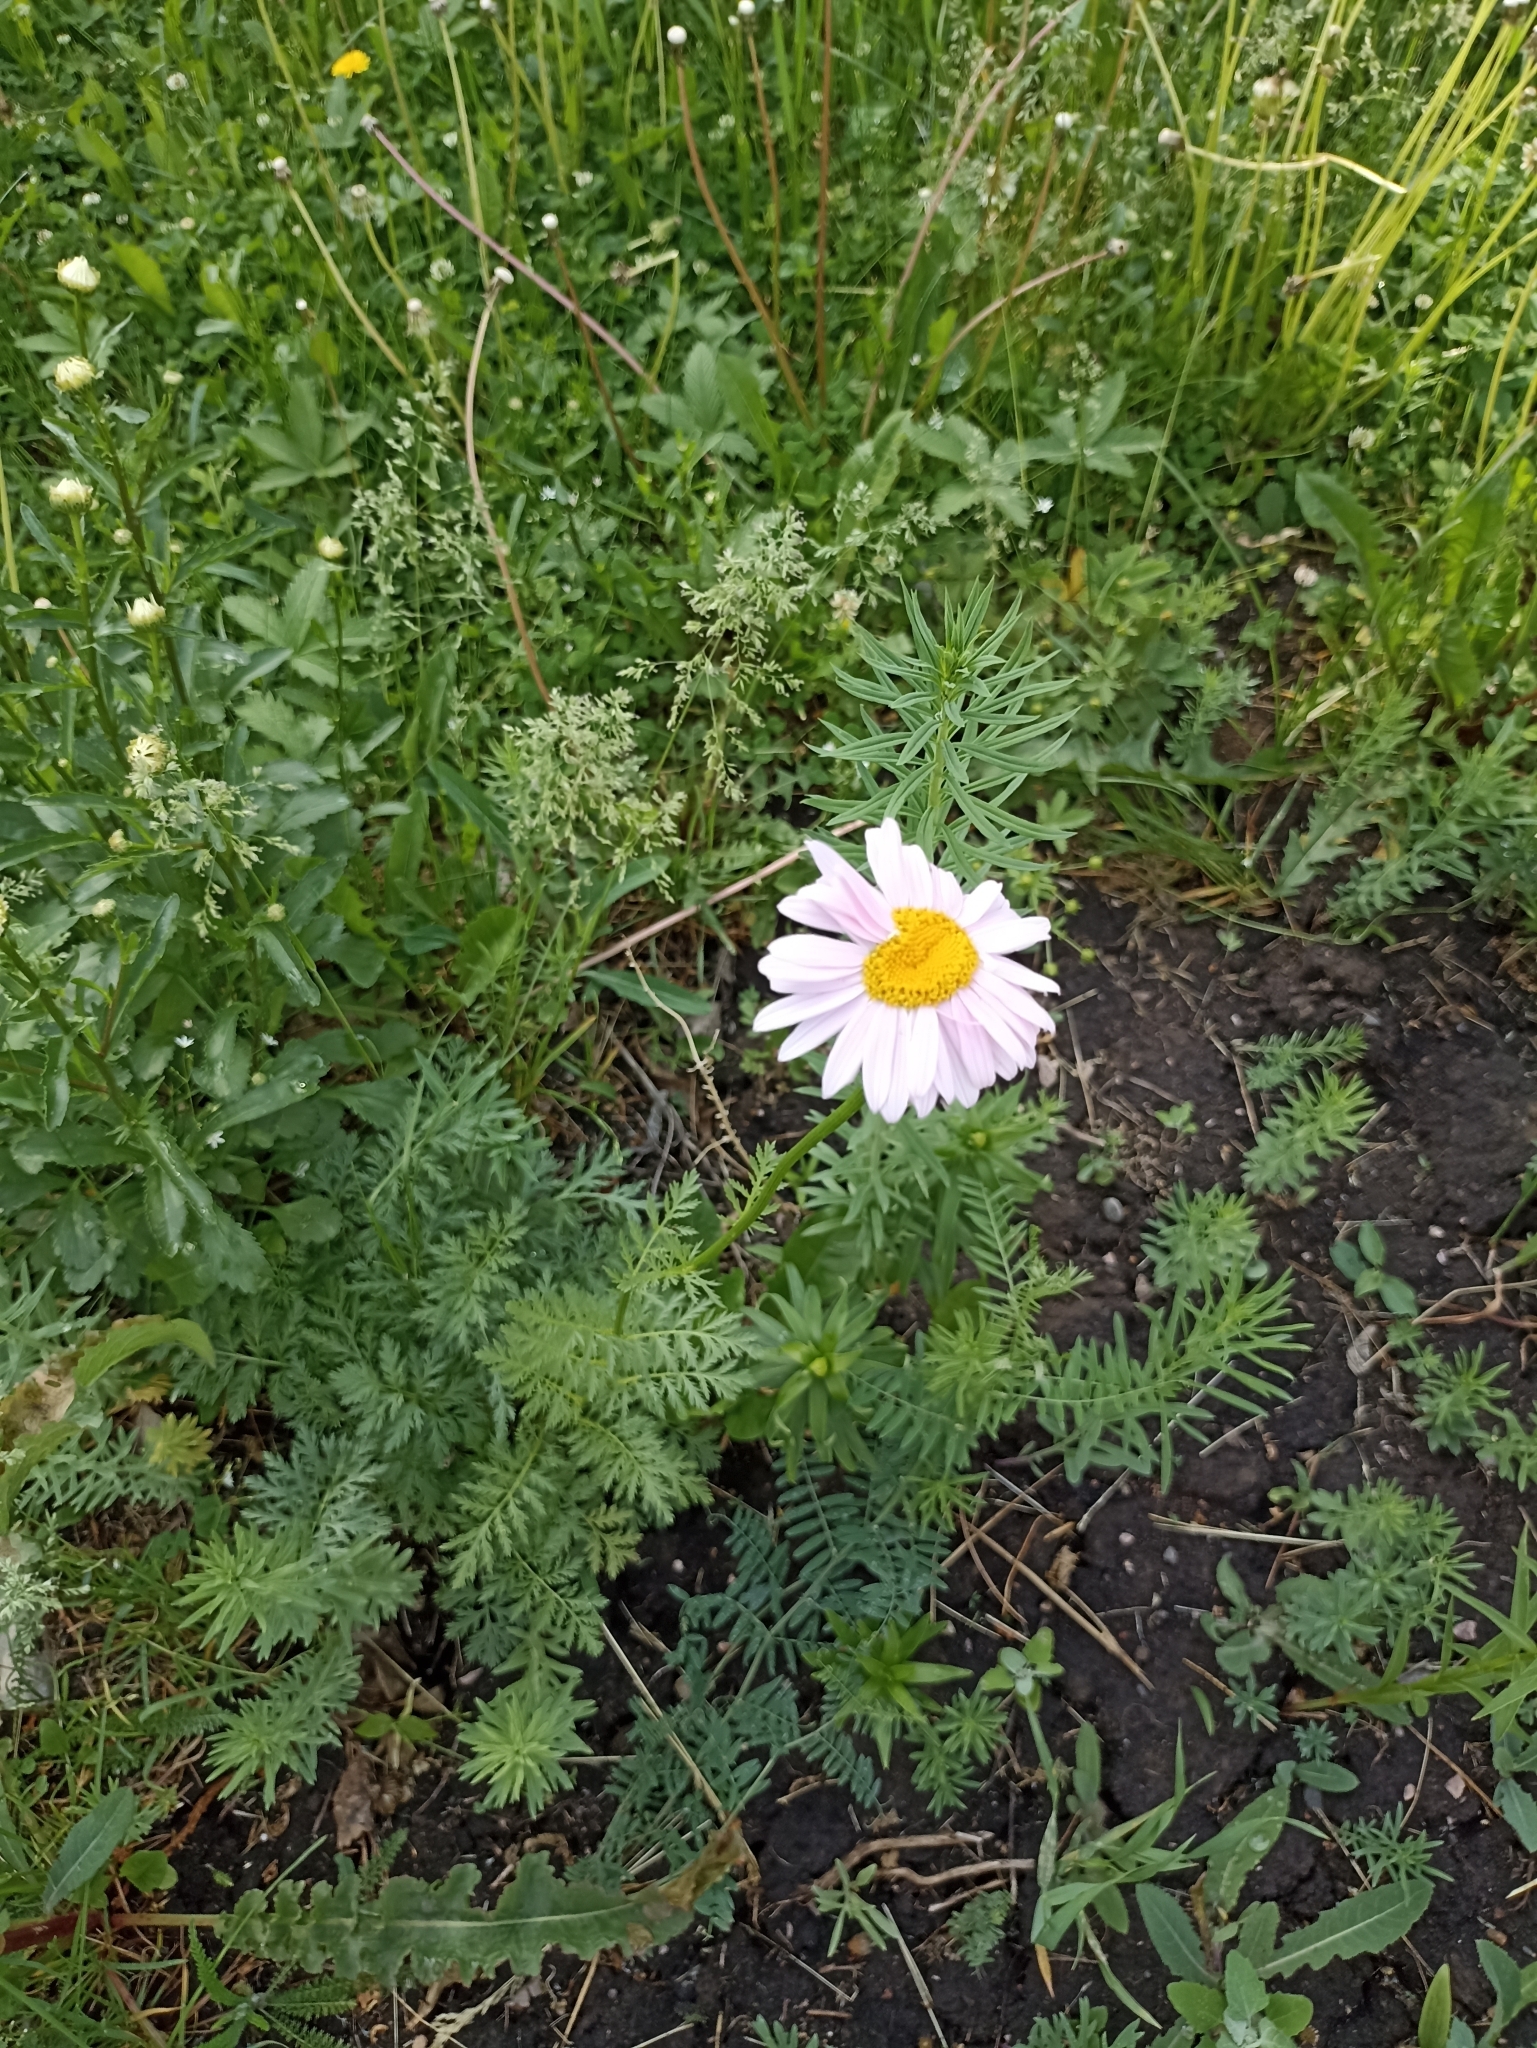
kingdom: Plantae
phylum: Tracheophyta
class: Magnoliopsida
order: Asterales
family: Asteraceae
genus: Tanacetum
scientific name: Tanacetum coccineum
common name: Pyrethum daisy
